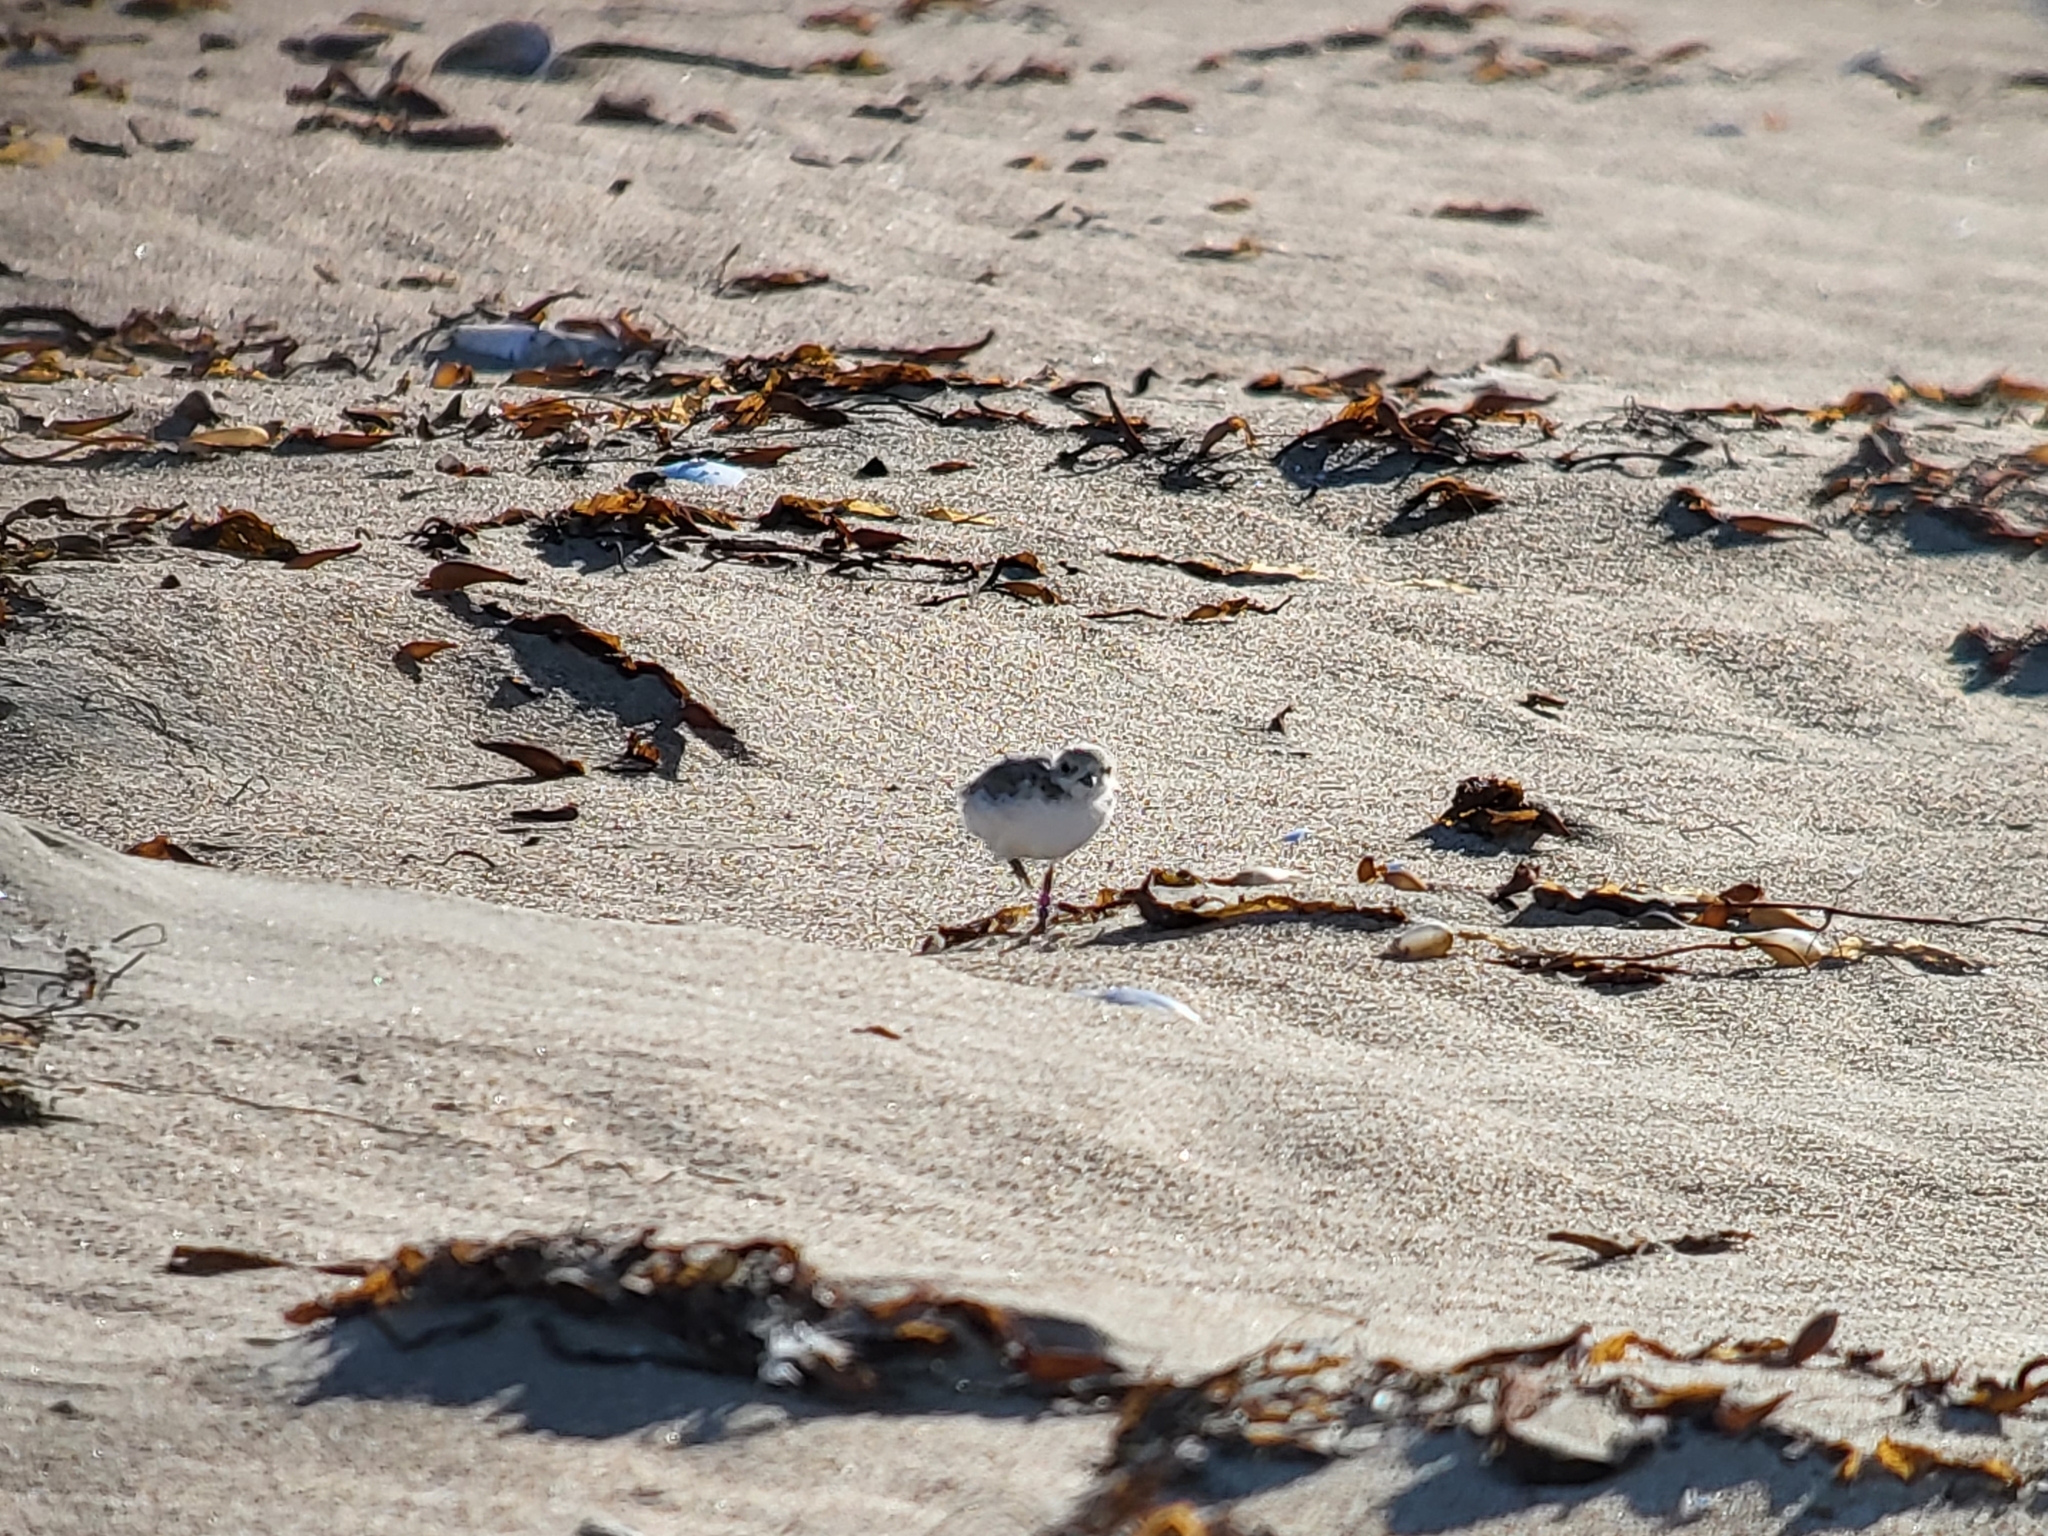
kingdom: Animalia
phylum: Chordata
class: Aves
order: Charadriiformes
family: Charadriidae
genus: Anarhynchus
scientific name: Anarhynchus
